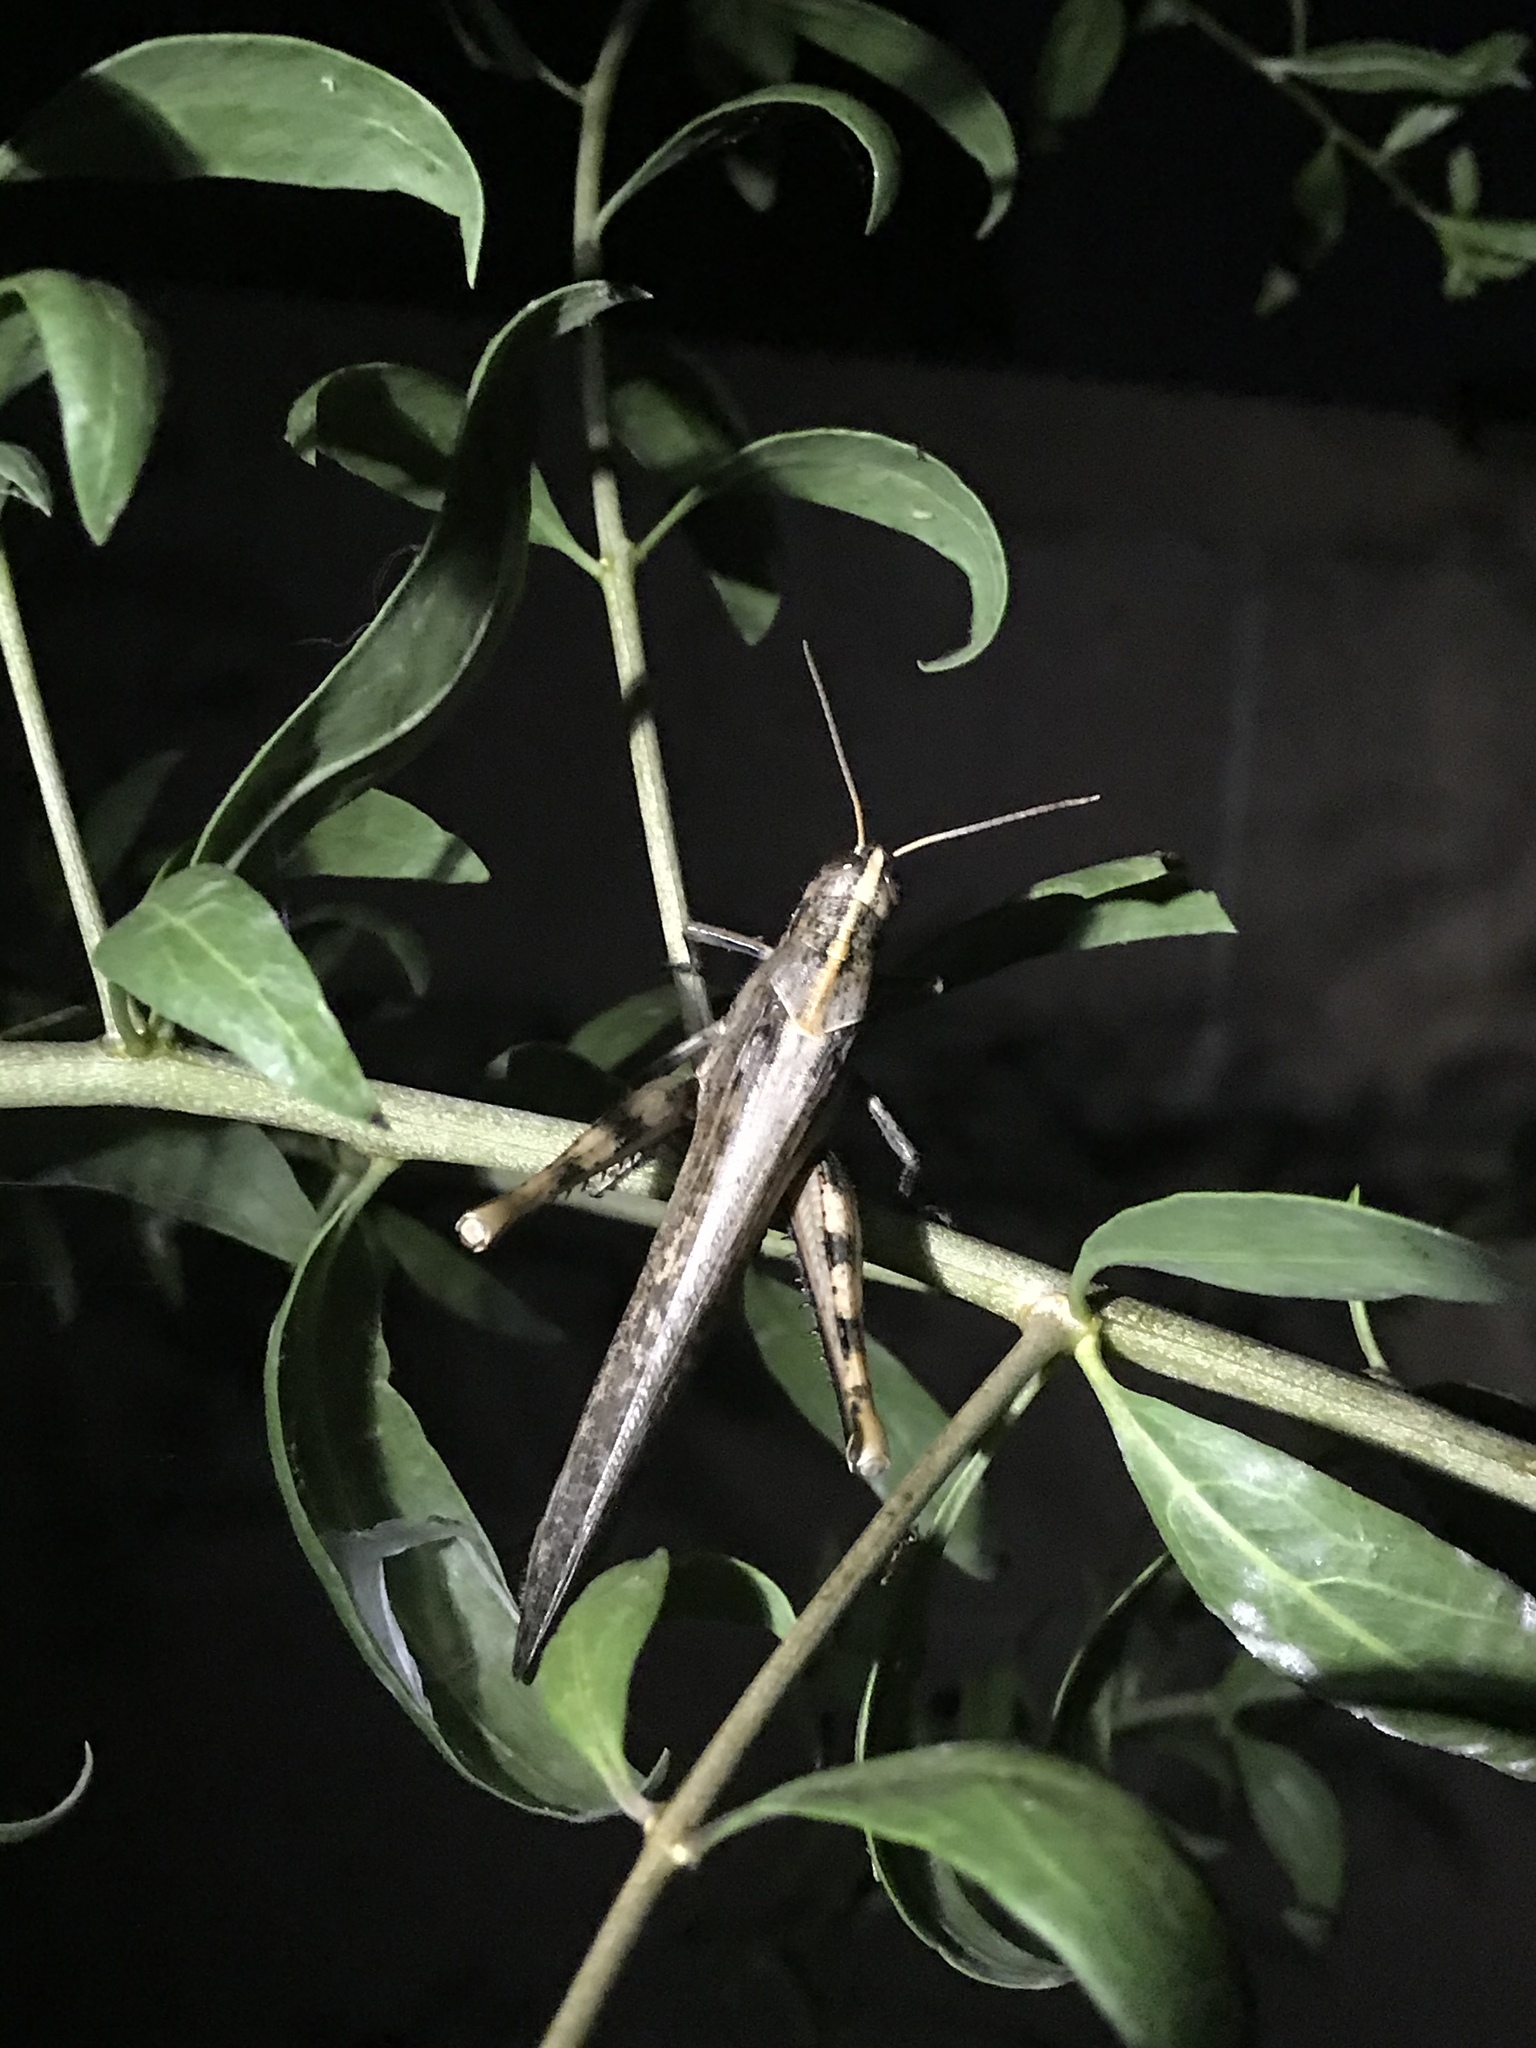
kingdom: Animalia
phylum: Arthropoda
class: Insecta
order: Orthoptera
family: Acrididae
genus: Schistocerca
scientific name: Schistocerca nitens
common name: Vagrant grasshopper
